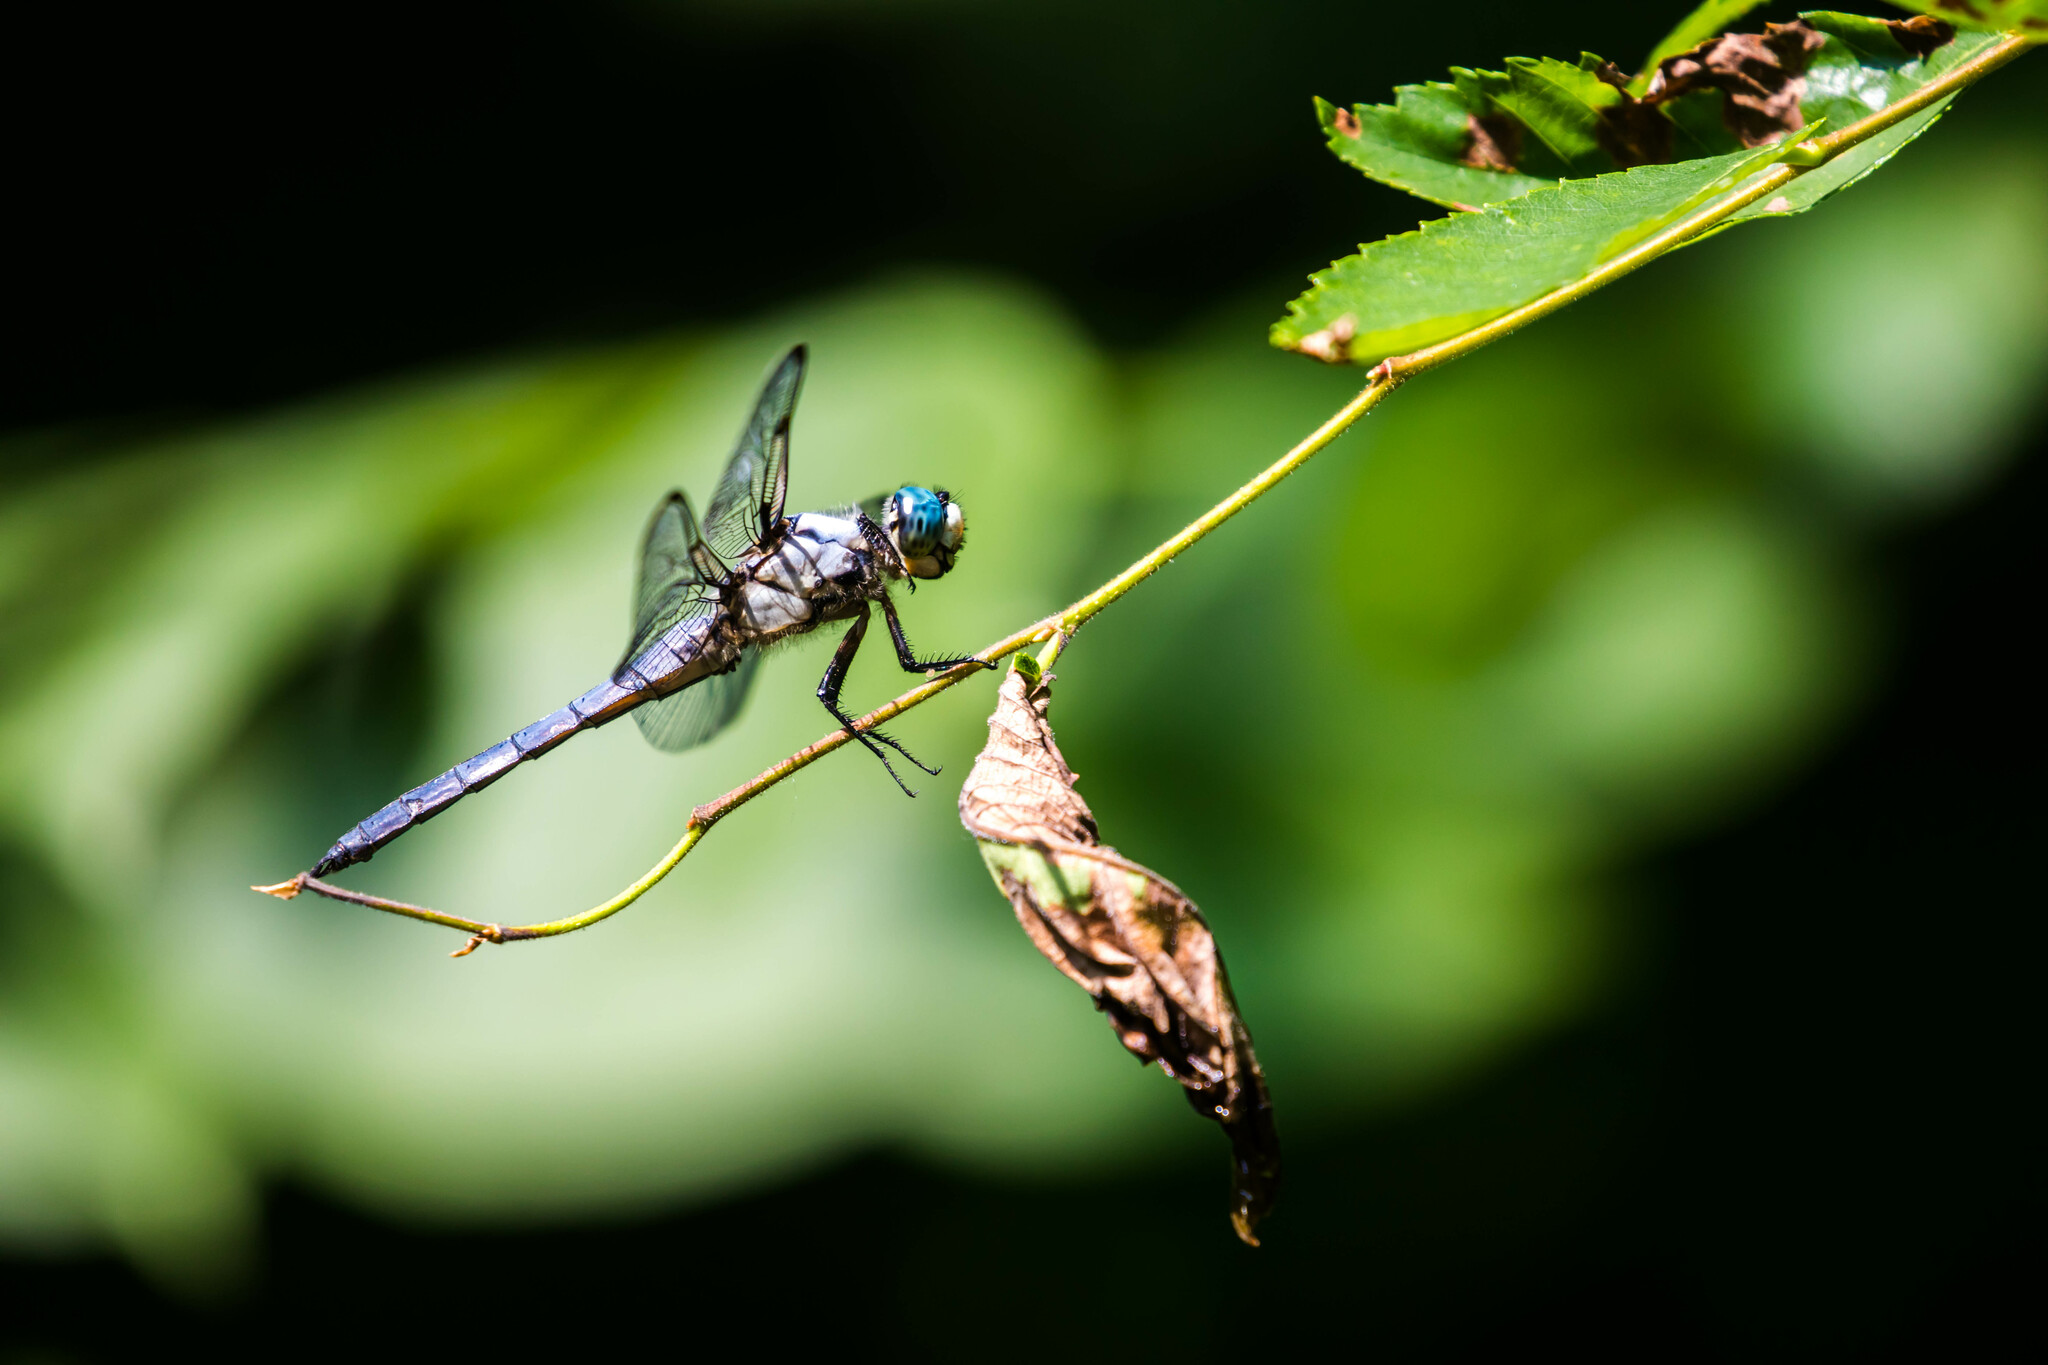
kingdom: Animalia
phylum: Arthropoda
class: Insecta
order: Odonata
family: Libellulidae
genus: Libellula
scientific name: Libellula vibrans
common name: Great blue skimmer
